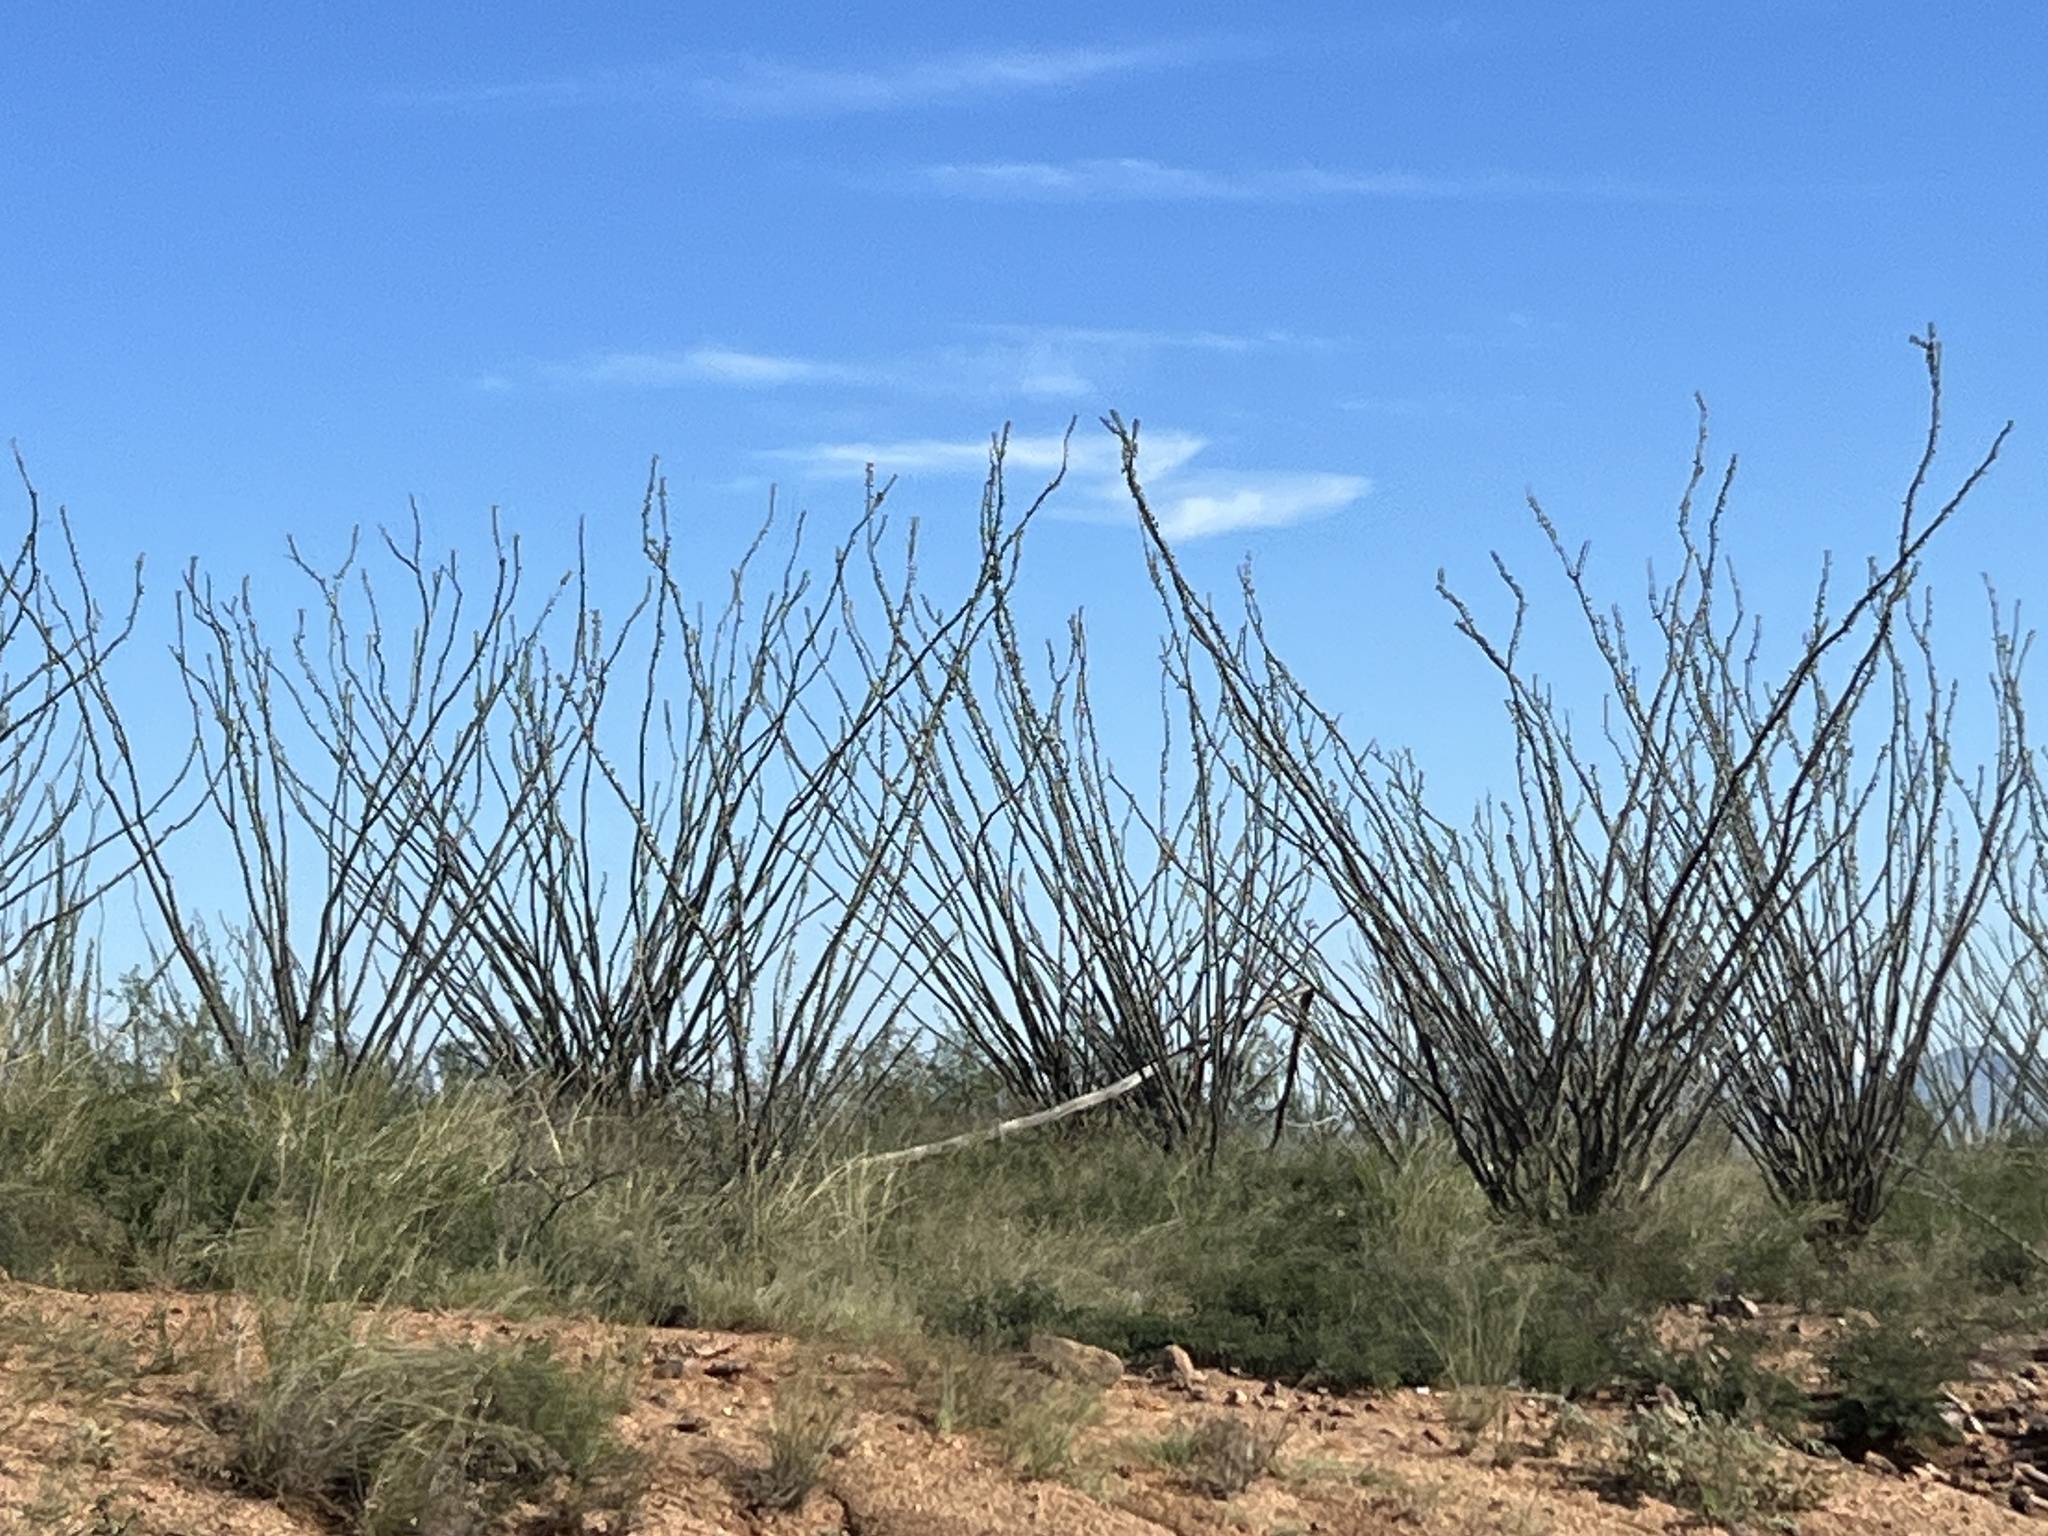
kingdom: Plantae
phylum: Tracheophyta
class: Magnoliopsida
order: Ericales
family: Fouquieriaceae
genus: Fouquieria
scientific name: Fouquieria splendens
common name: Vine-cactus
